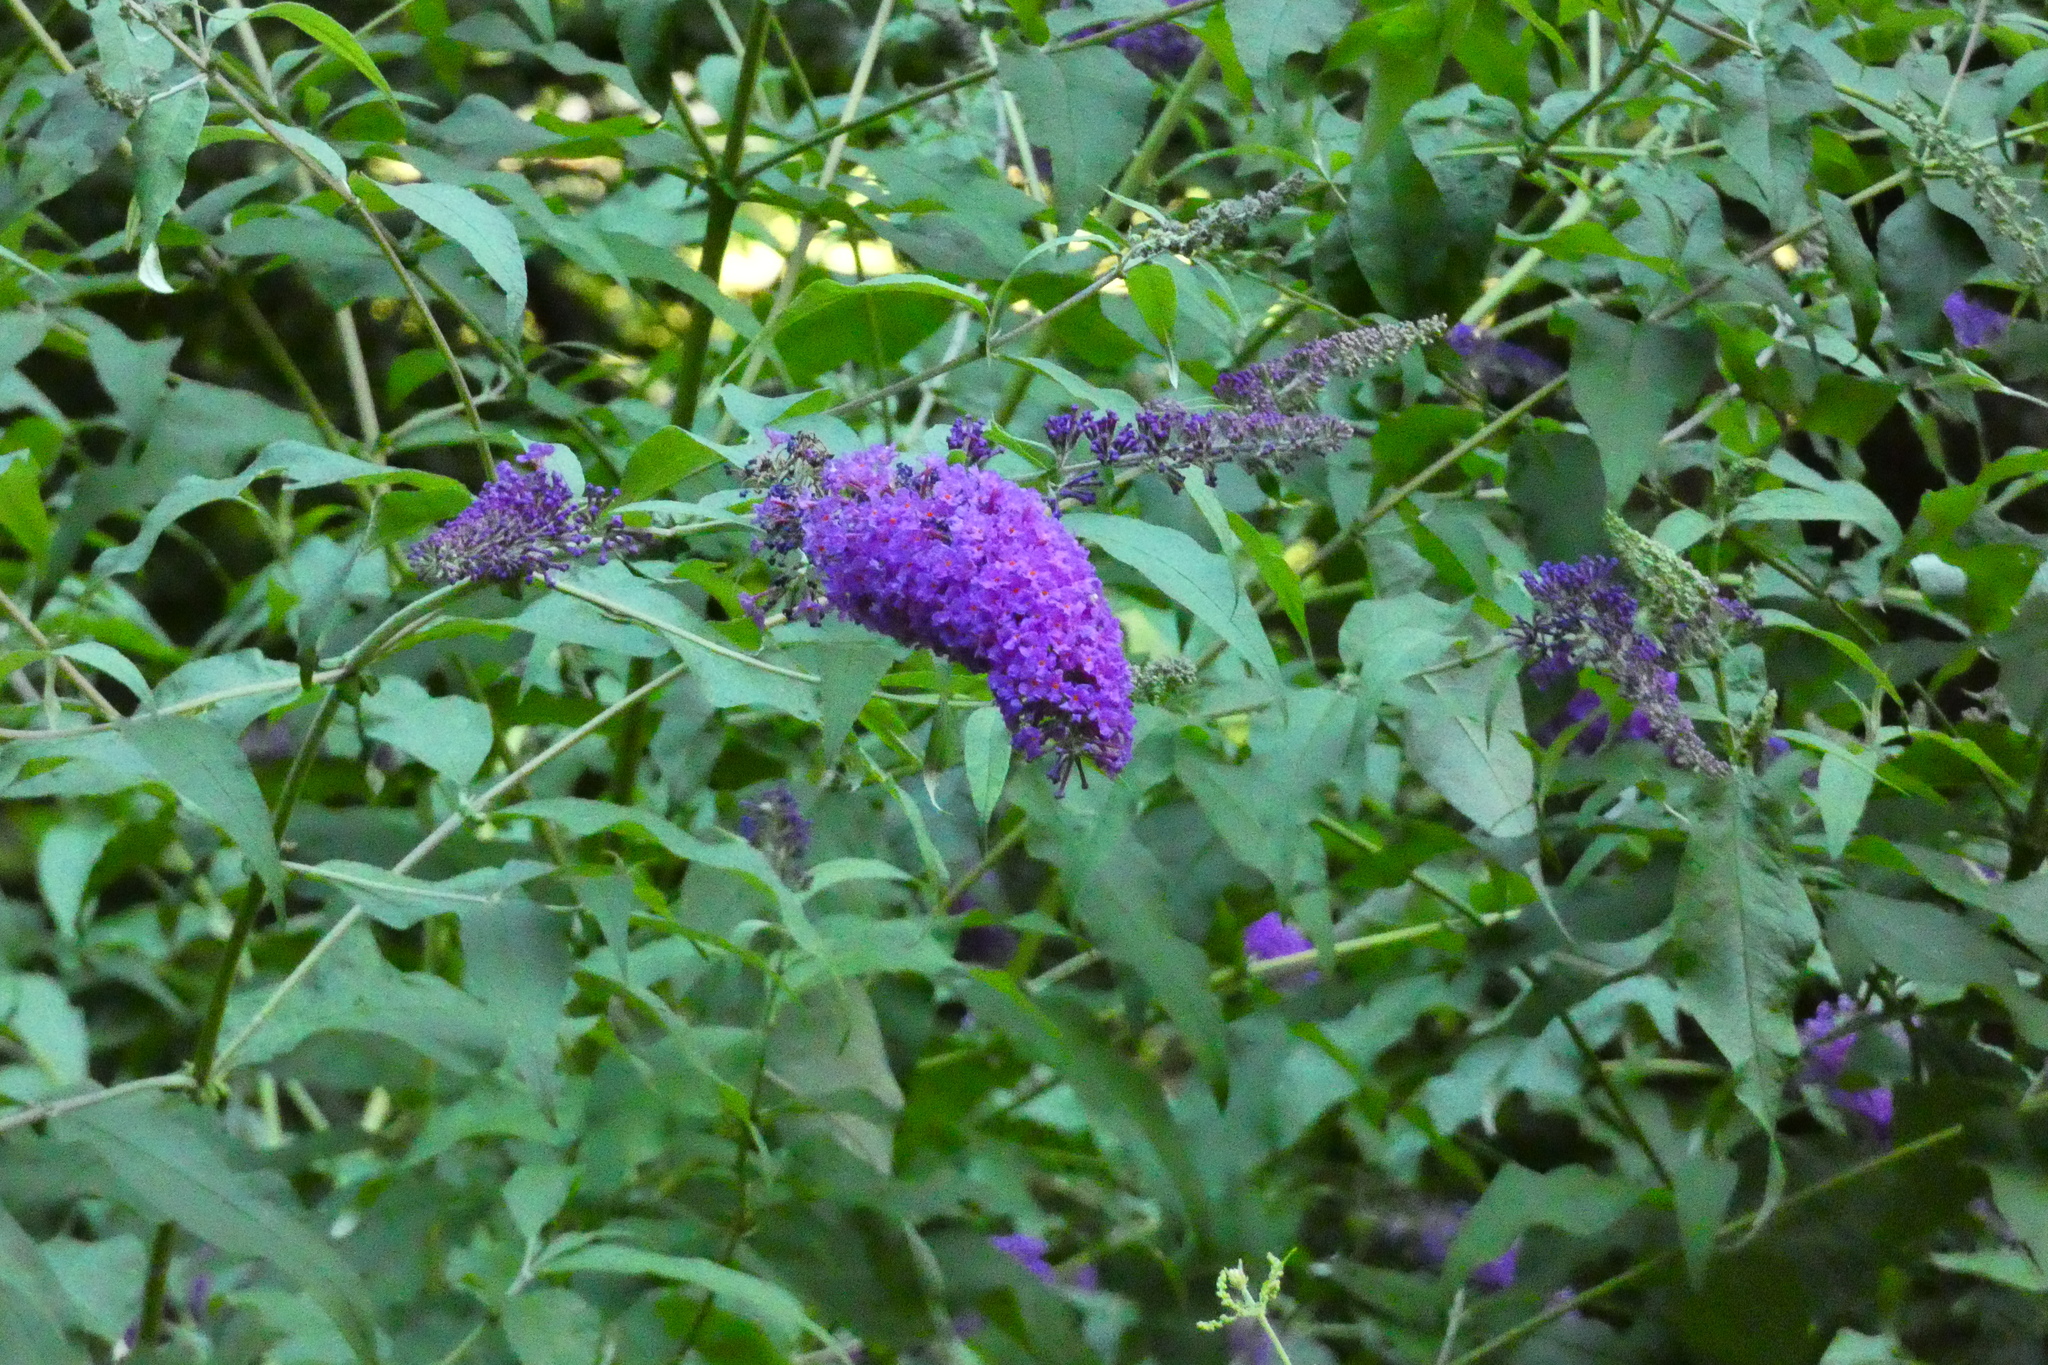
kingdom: Plantae
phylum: Tracheophyta
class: Magnoliopsida
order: Lamiales
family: Scrophulariaceae
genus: Buddleja
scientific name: Buddleja davidii
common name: Butterfly-bush
